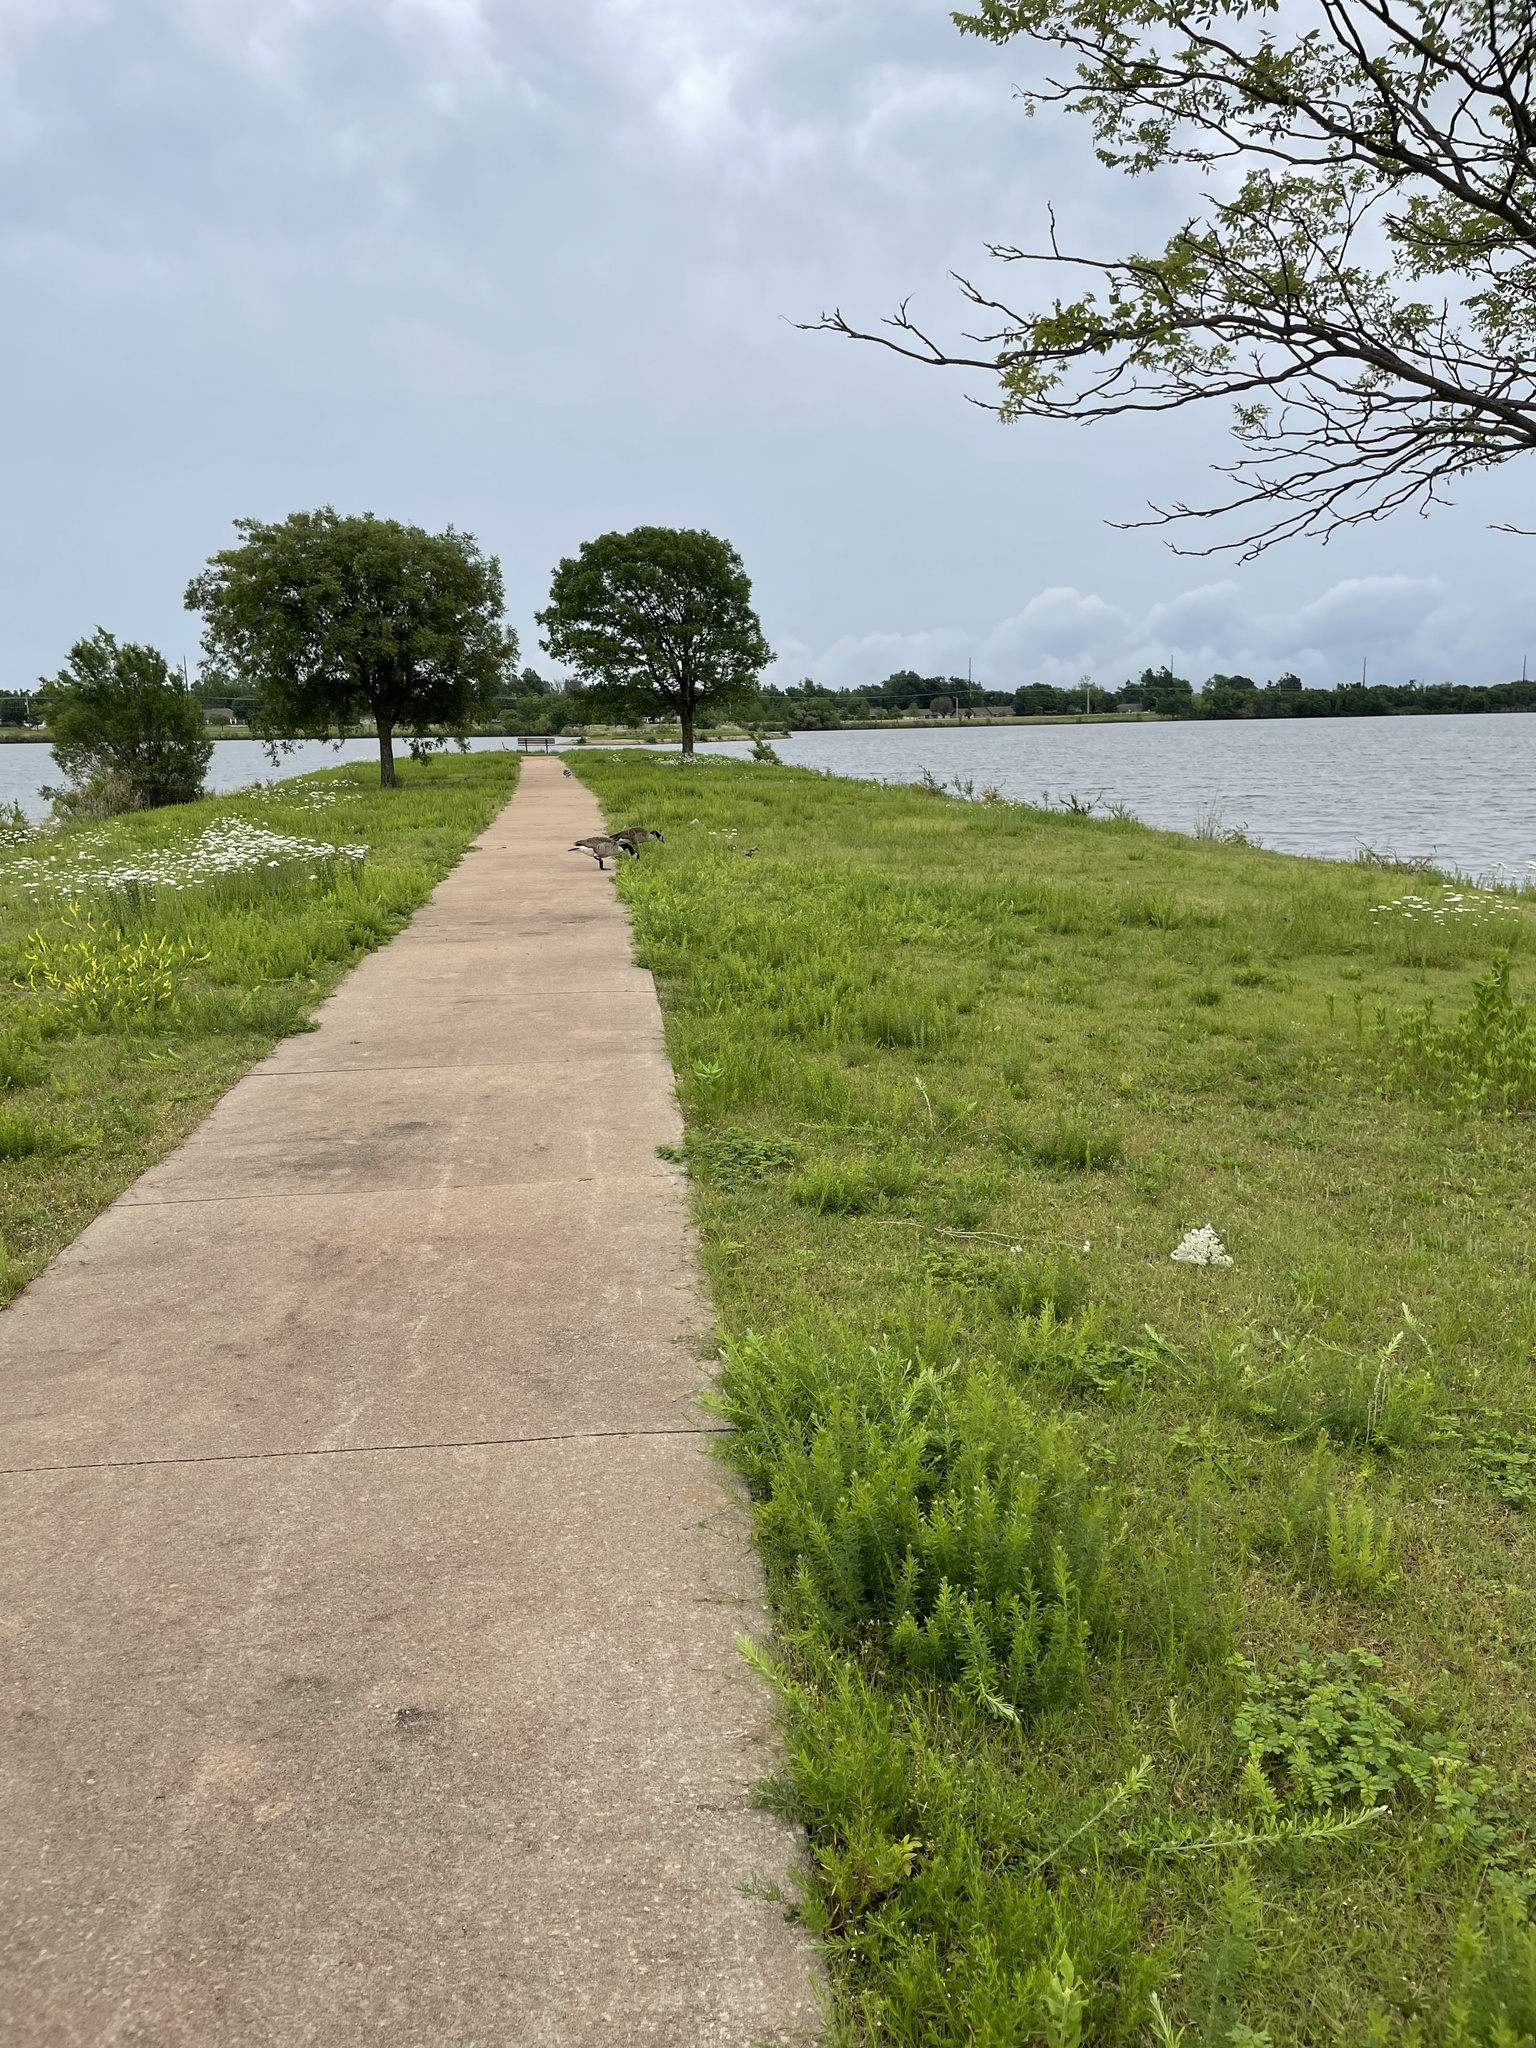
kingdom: Animalia
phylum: Chordata
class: Aves
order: Anseriformes
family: Anatidae
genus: Branta
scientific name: Branta canadensis
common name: Canada goose
